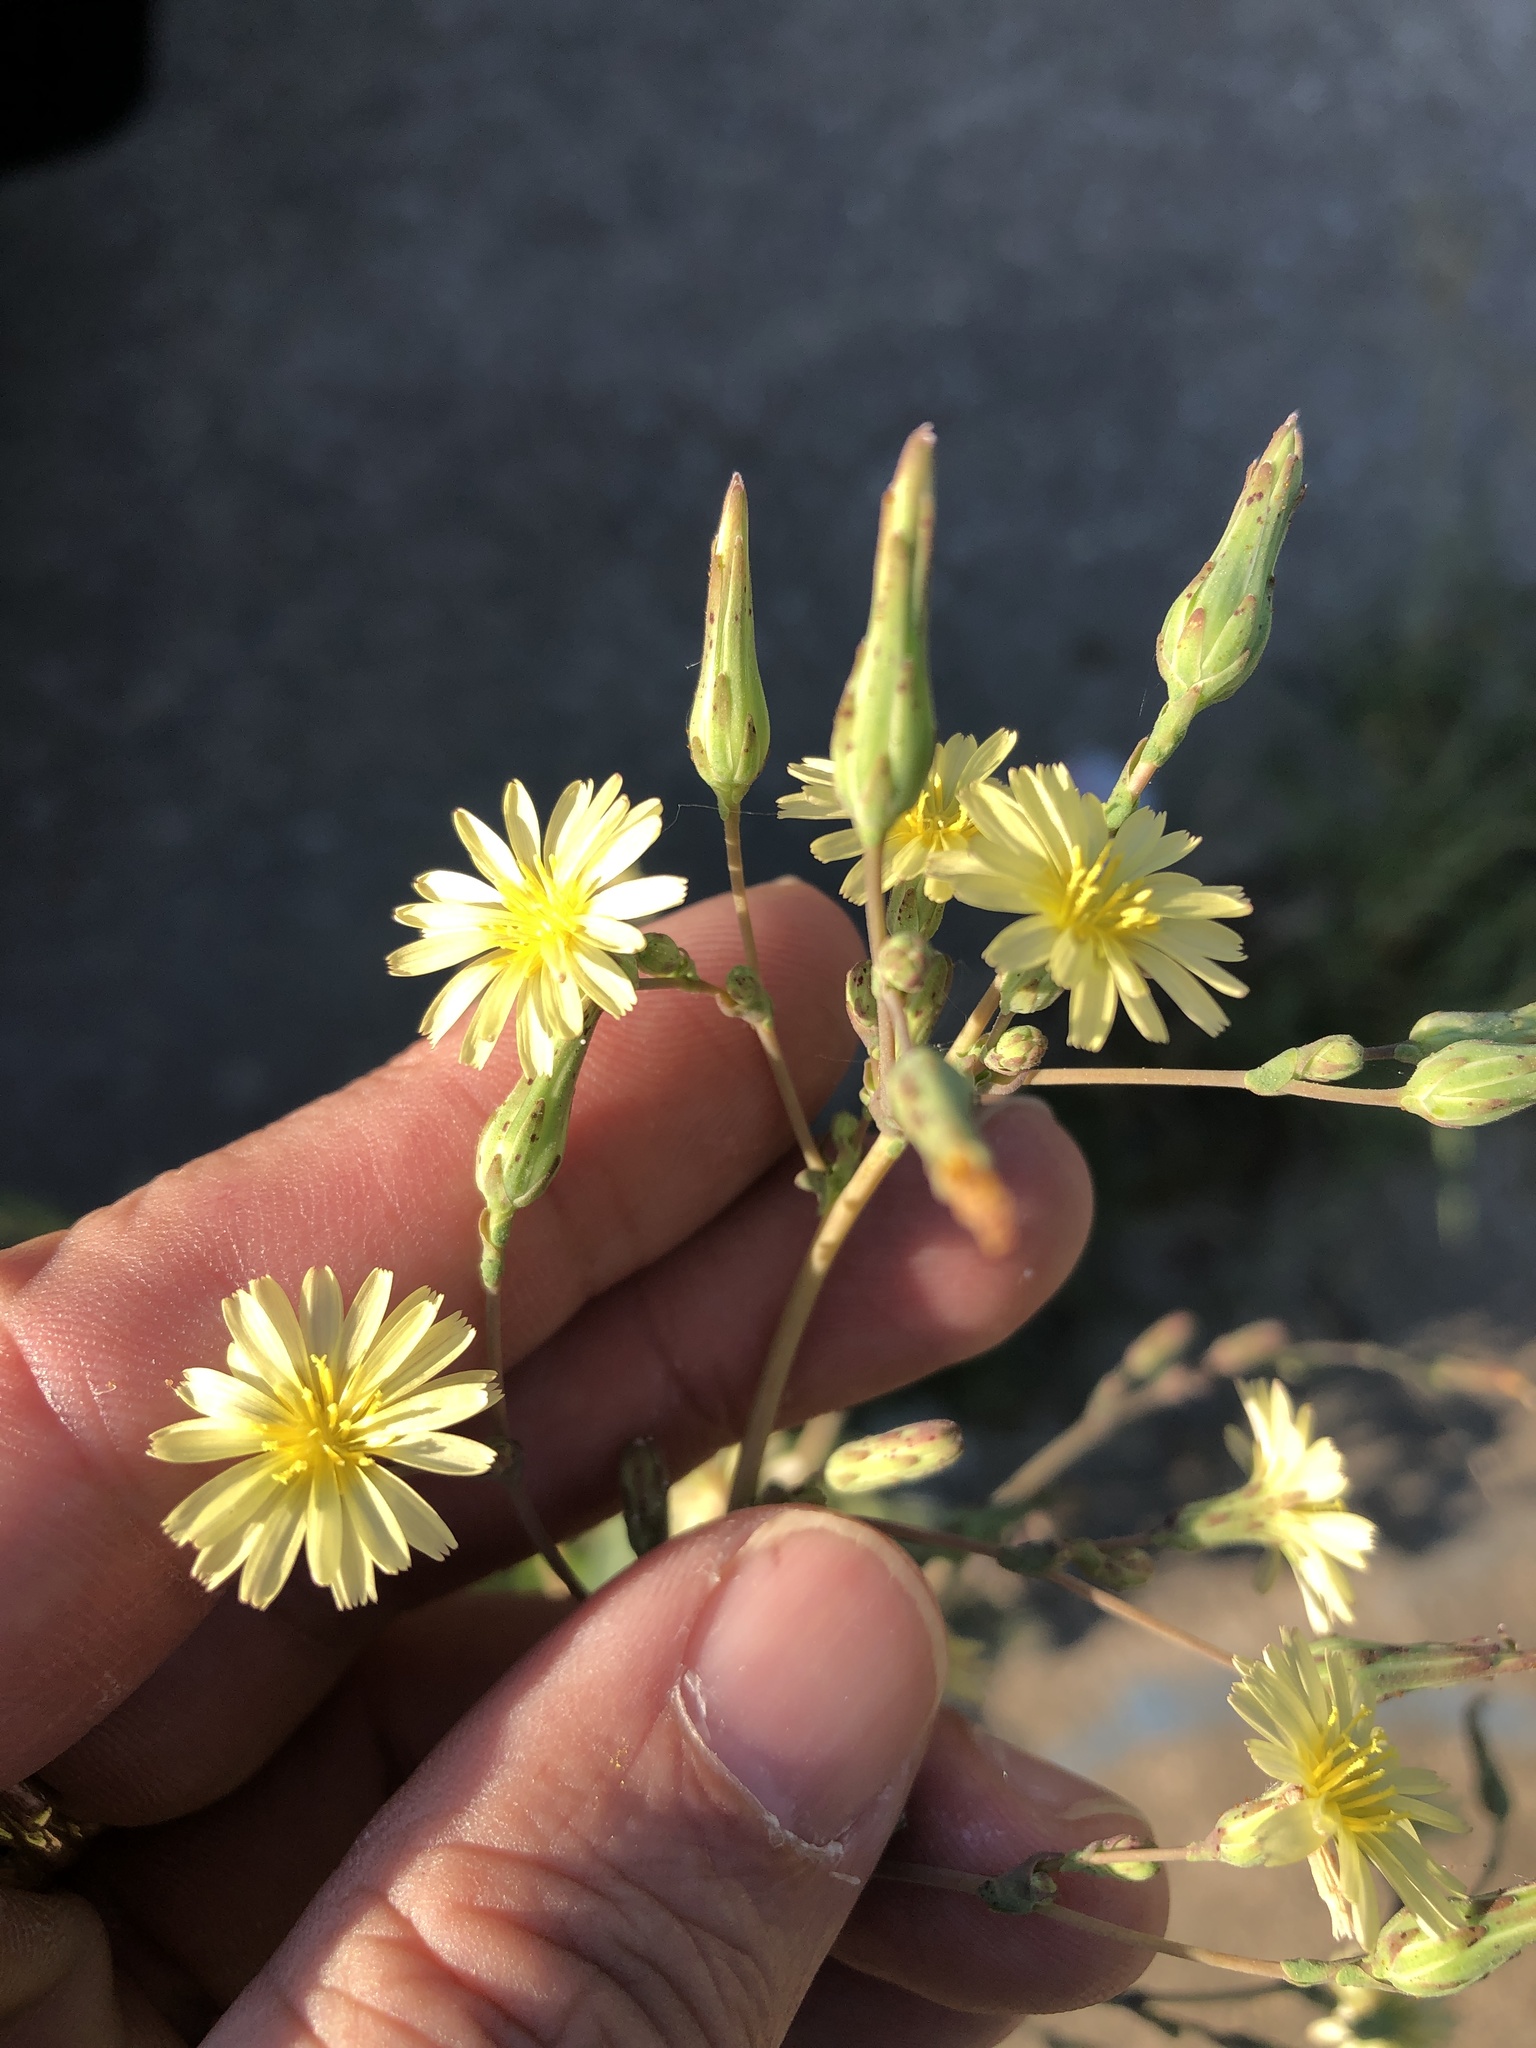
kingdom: Plantae
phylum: Tracheophyta
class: Magnoliopsida
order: Asterales
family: Asteraceae
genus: Lactuca
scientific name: Lactuca serriola
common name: Prickly lettuce
